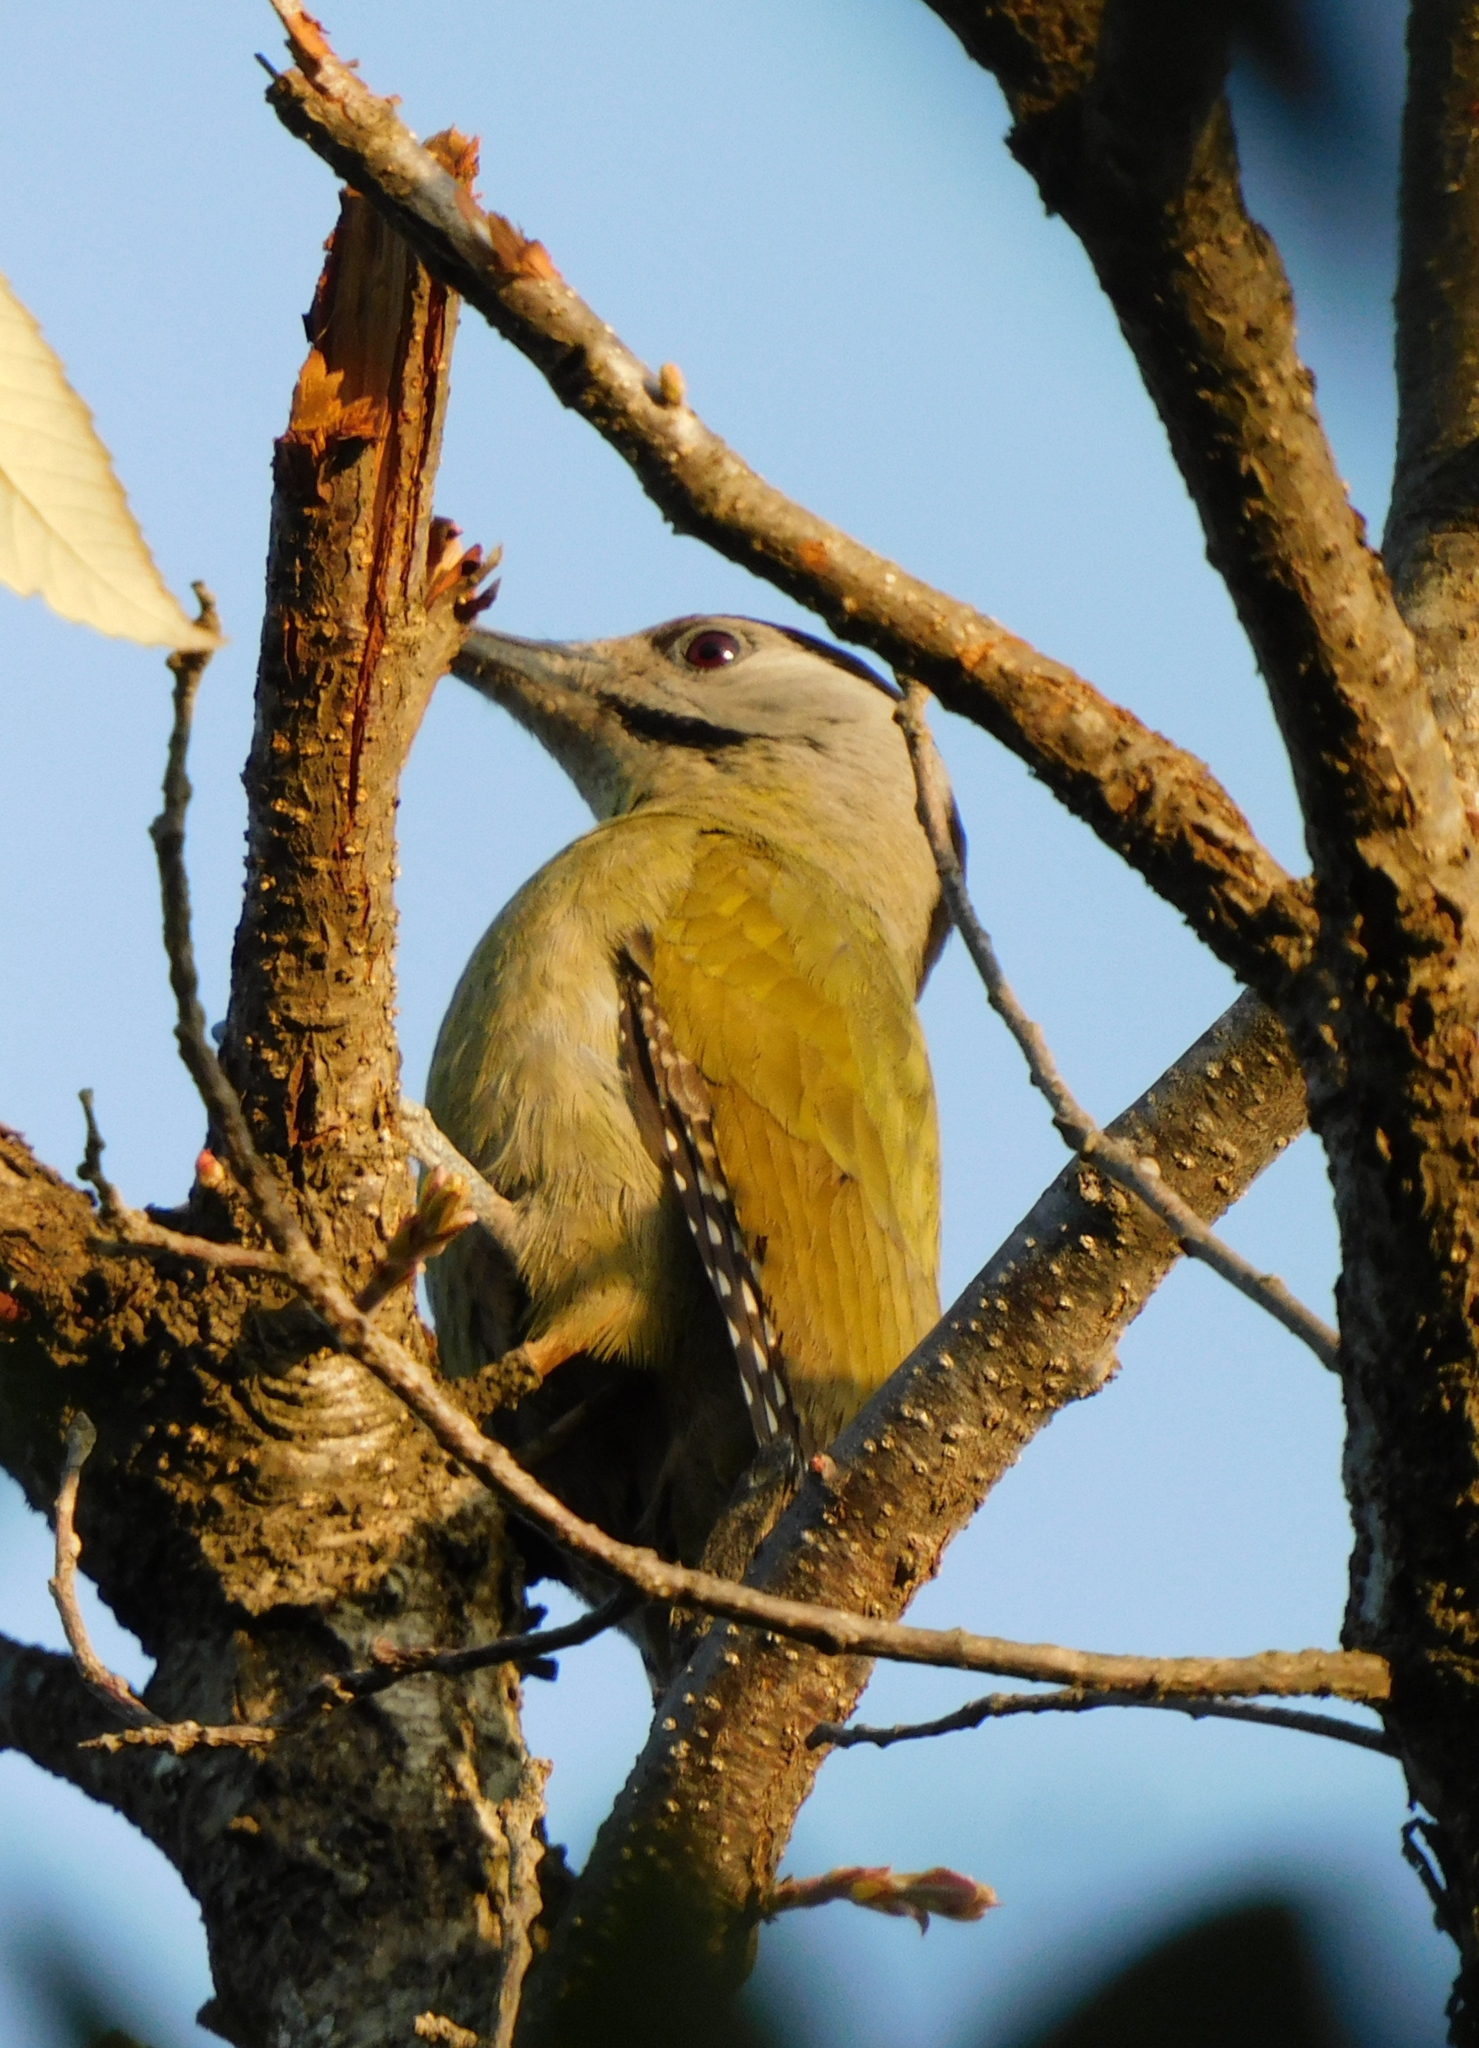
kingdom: Animalia
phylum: Chordata
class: Aves
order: Piciformes
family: Picidae
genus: Picus
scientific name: Picus canus
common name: Grey-headed woodpecker
